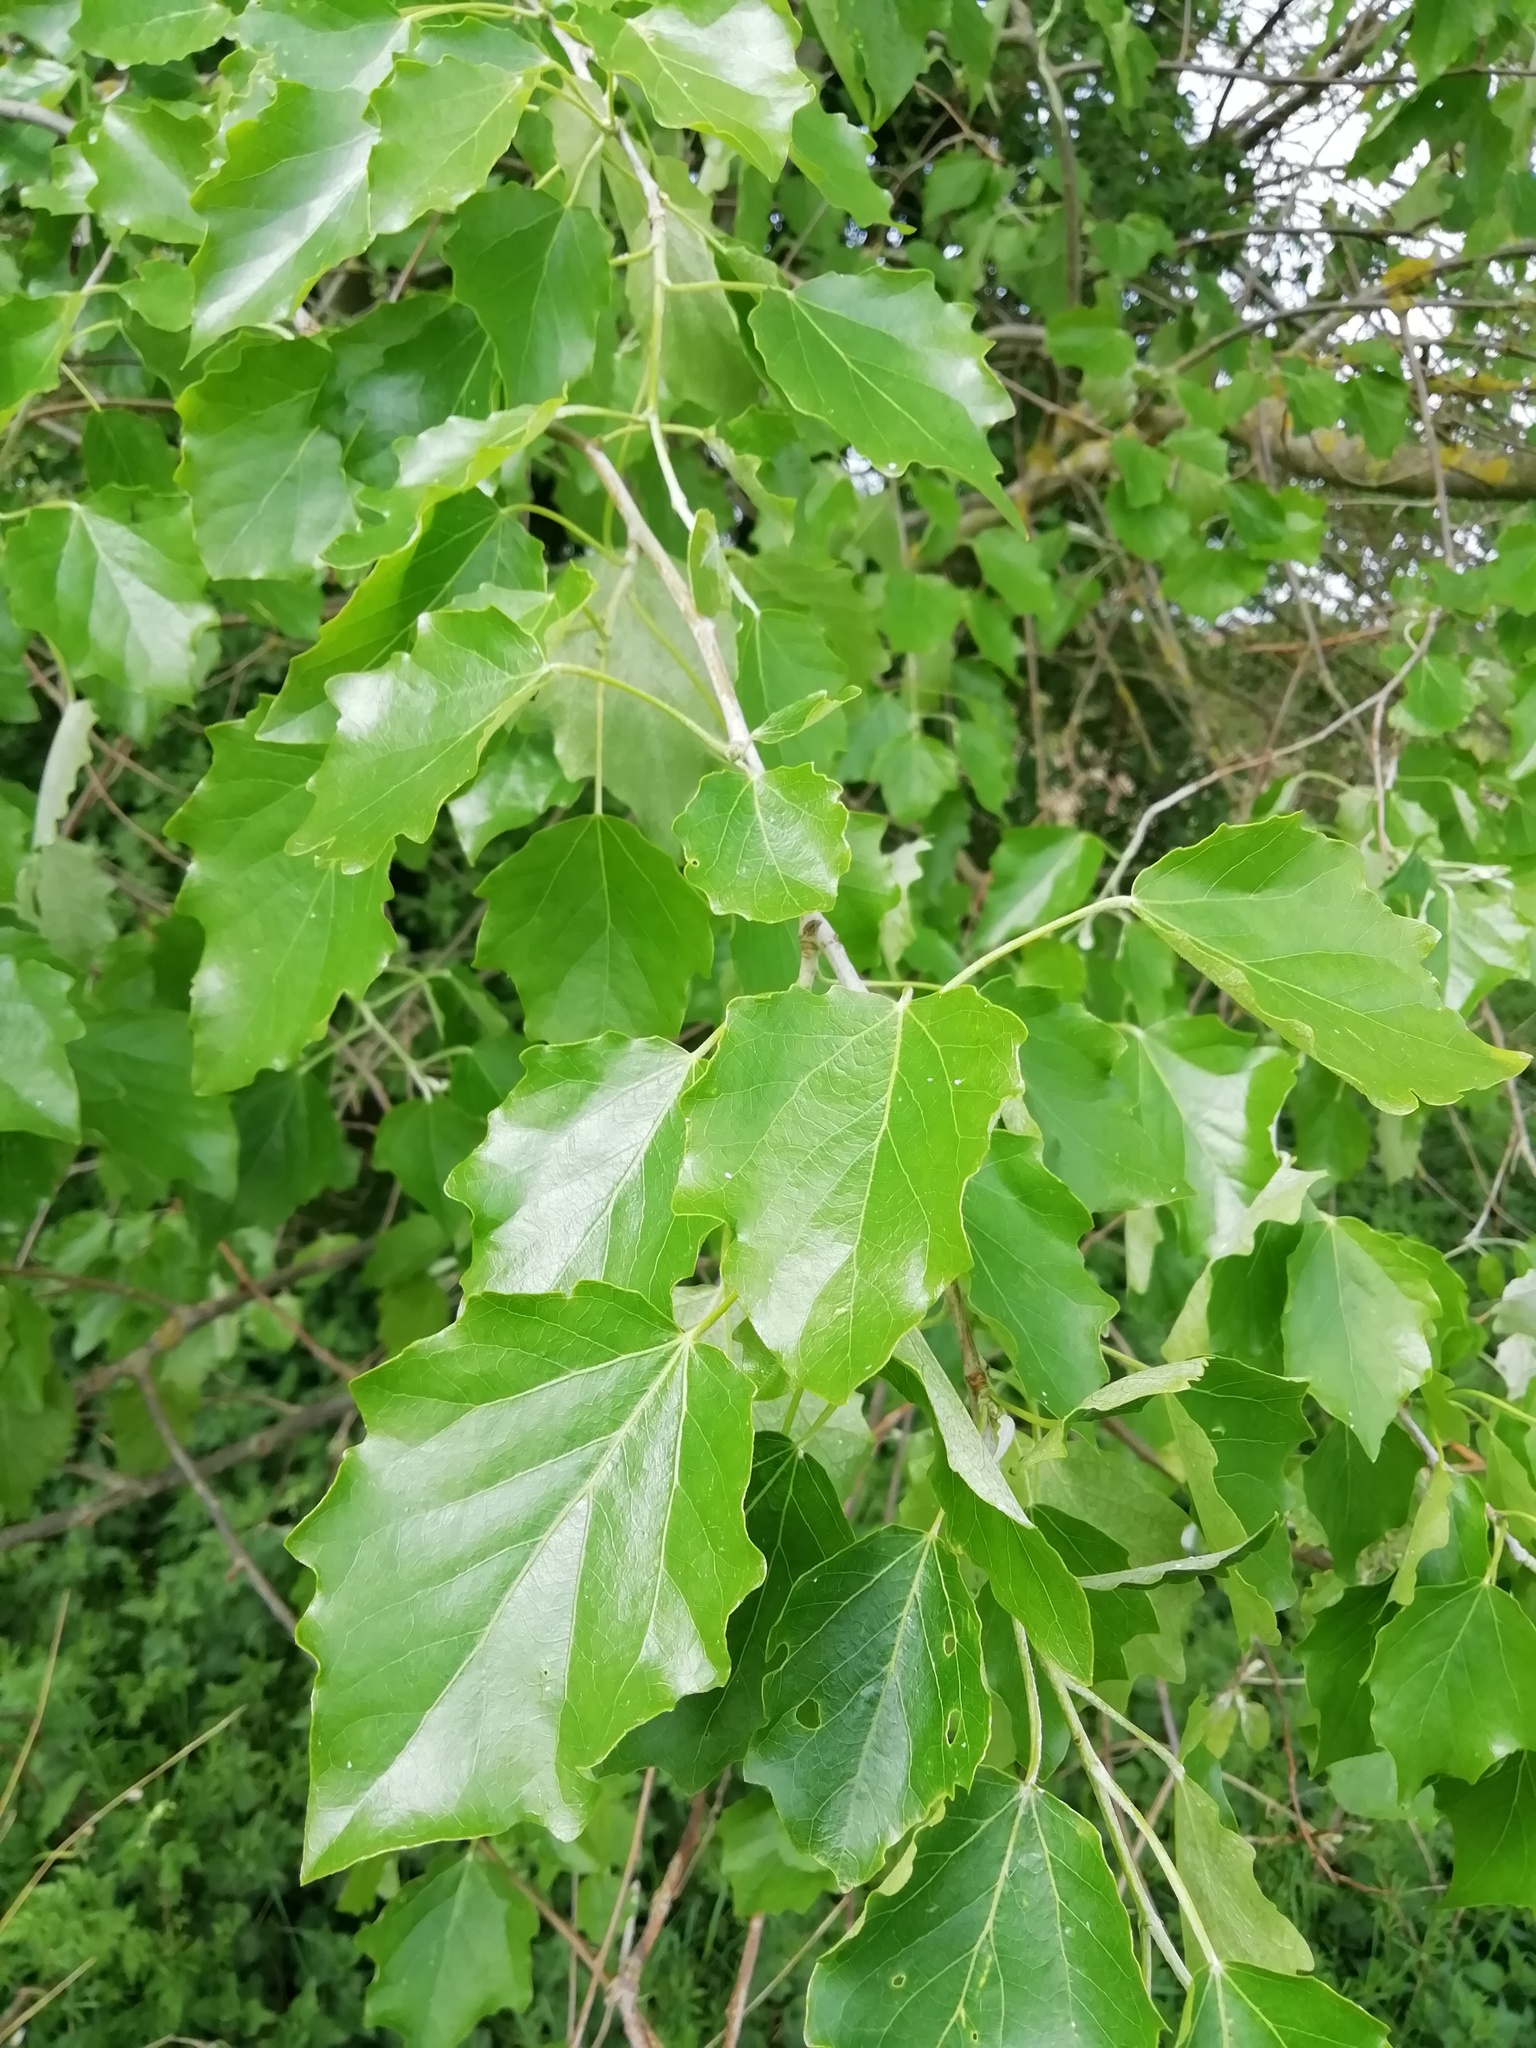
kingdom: Plantae
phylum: Tracheophyta
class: Magnoliopsida
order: Malpighiales
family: Salicaceae
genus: Populus
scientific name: Populus canescens
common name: Gray poplar
